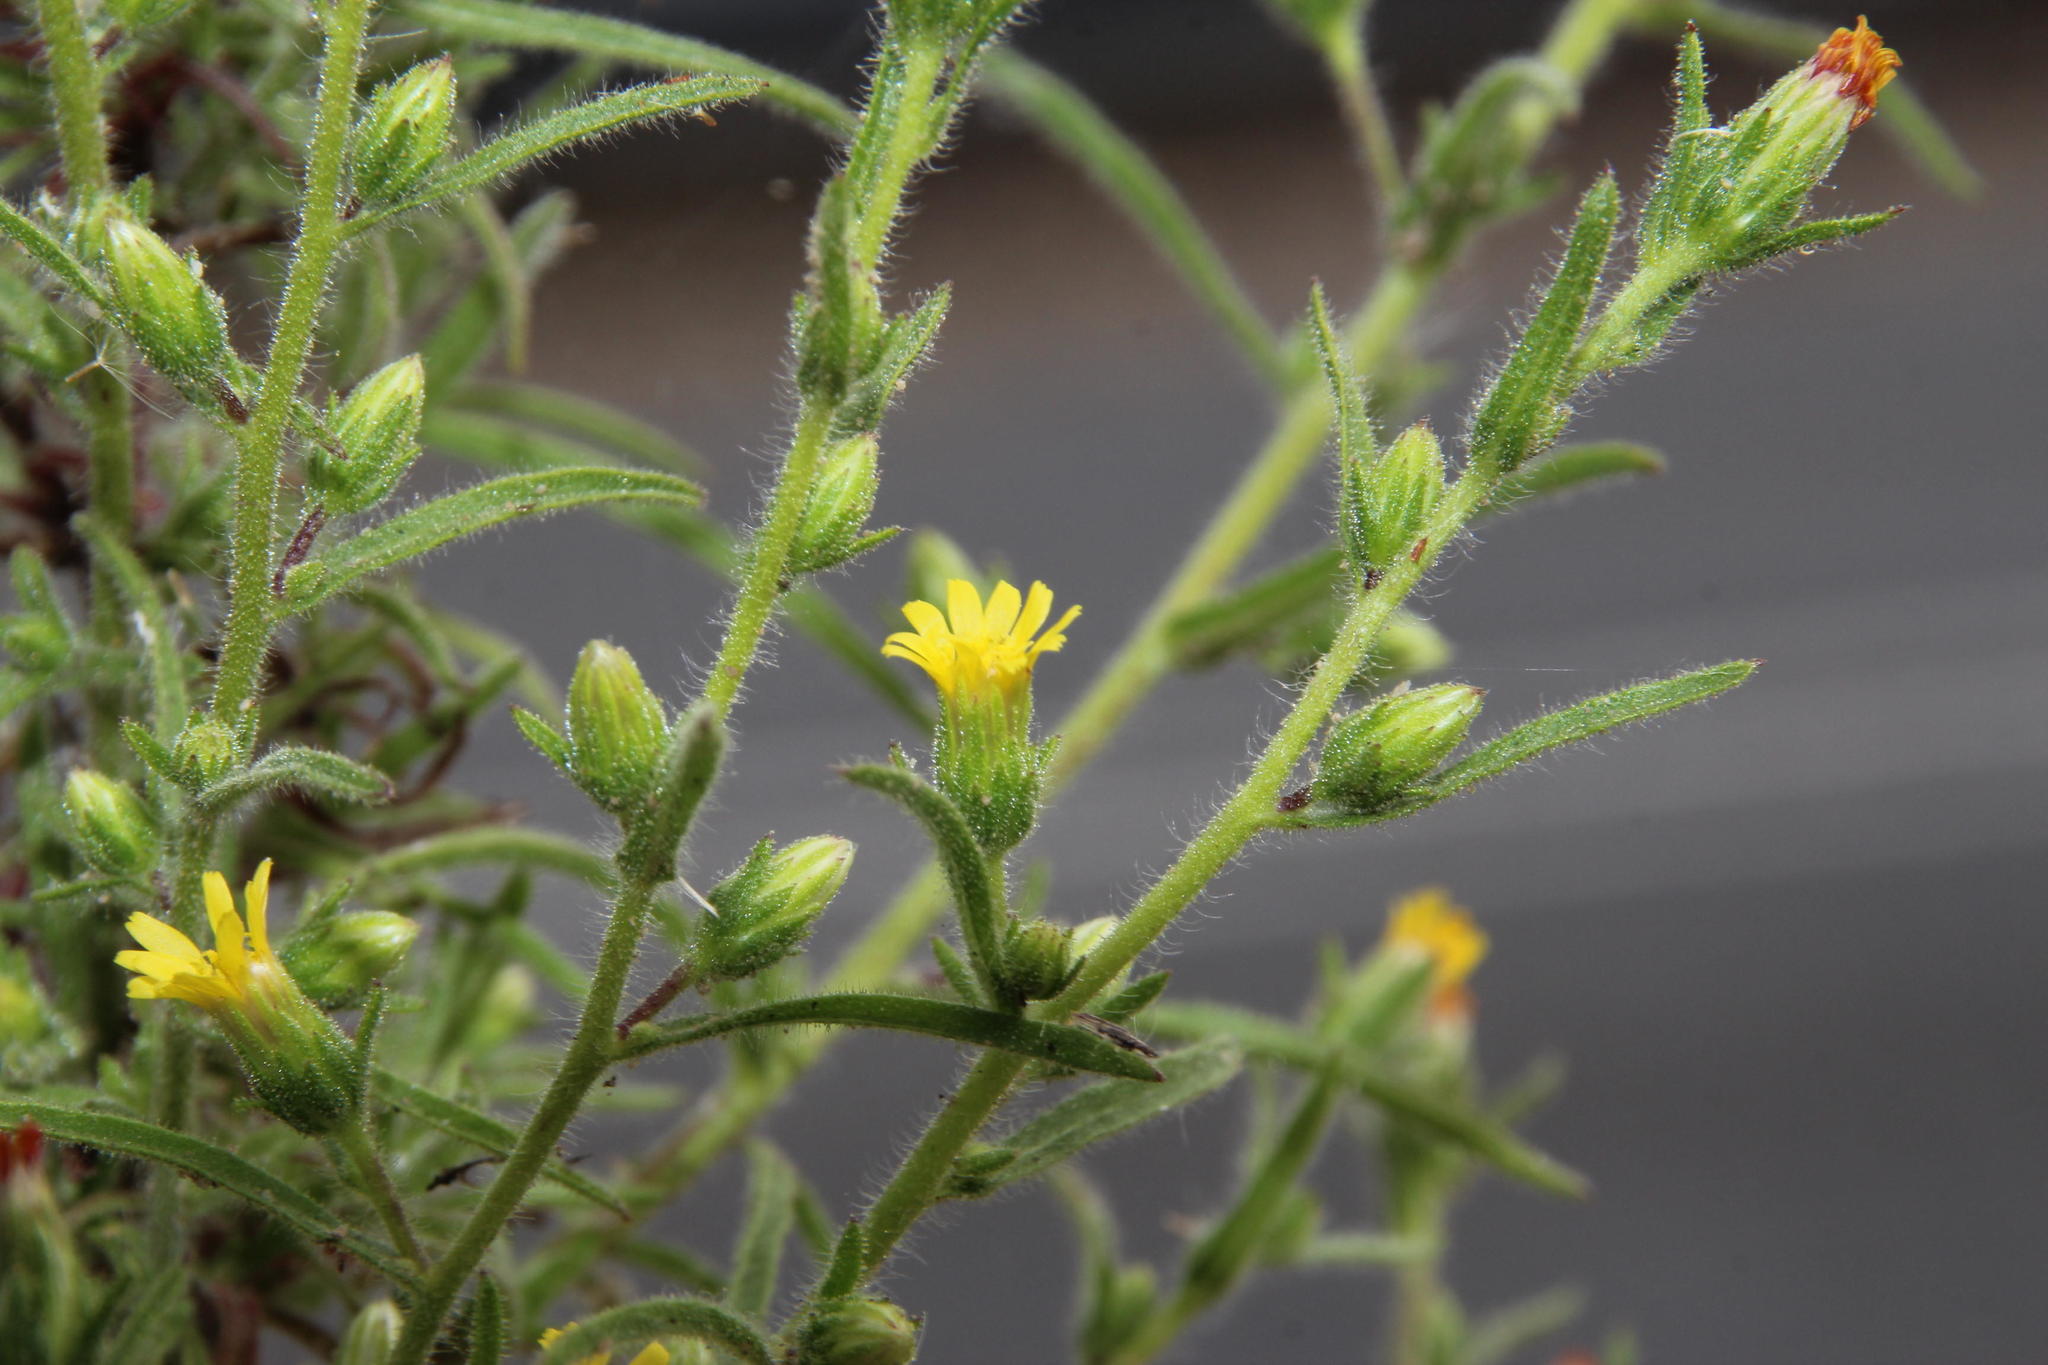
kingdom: Plantae
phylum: Tracheophyta
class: Magnoliopsida
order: Asterales
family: Asteraceae
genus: Dittrichia
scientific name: Dittrichia graveolens
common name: Stinking fleabane
